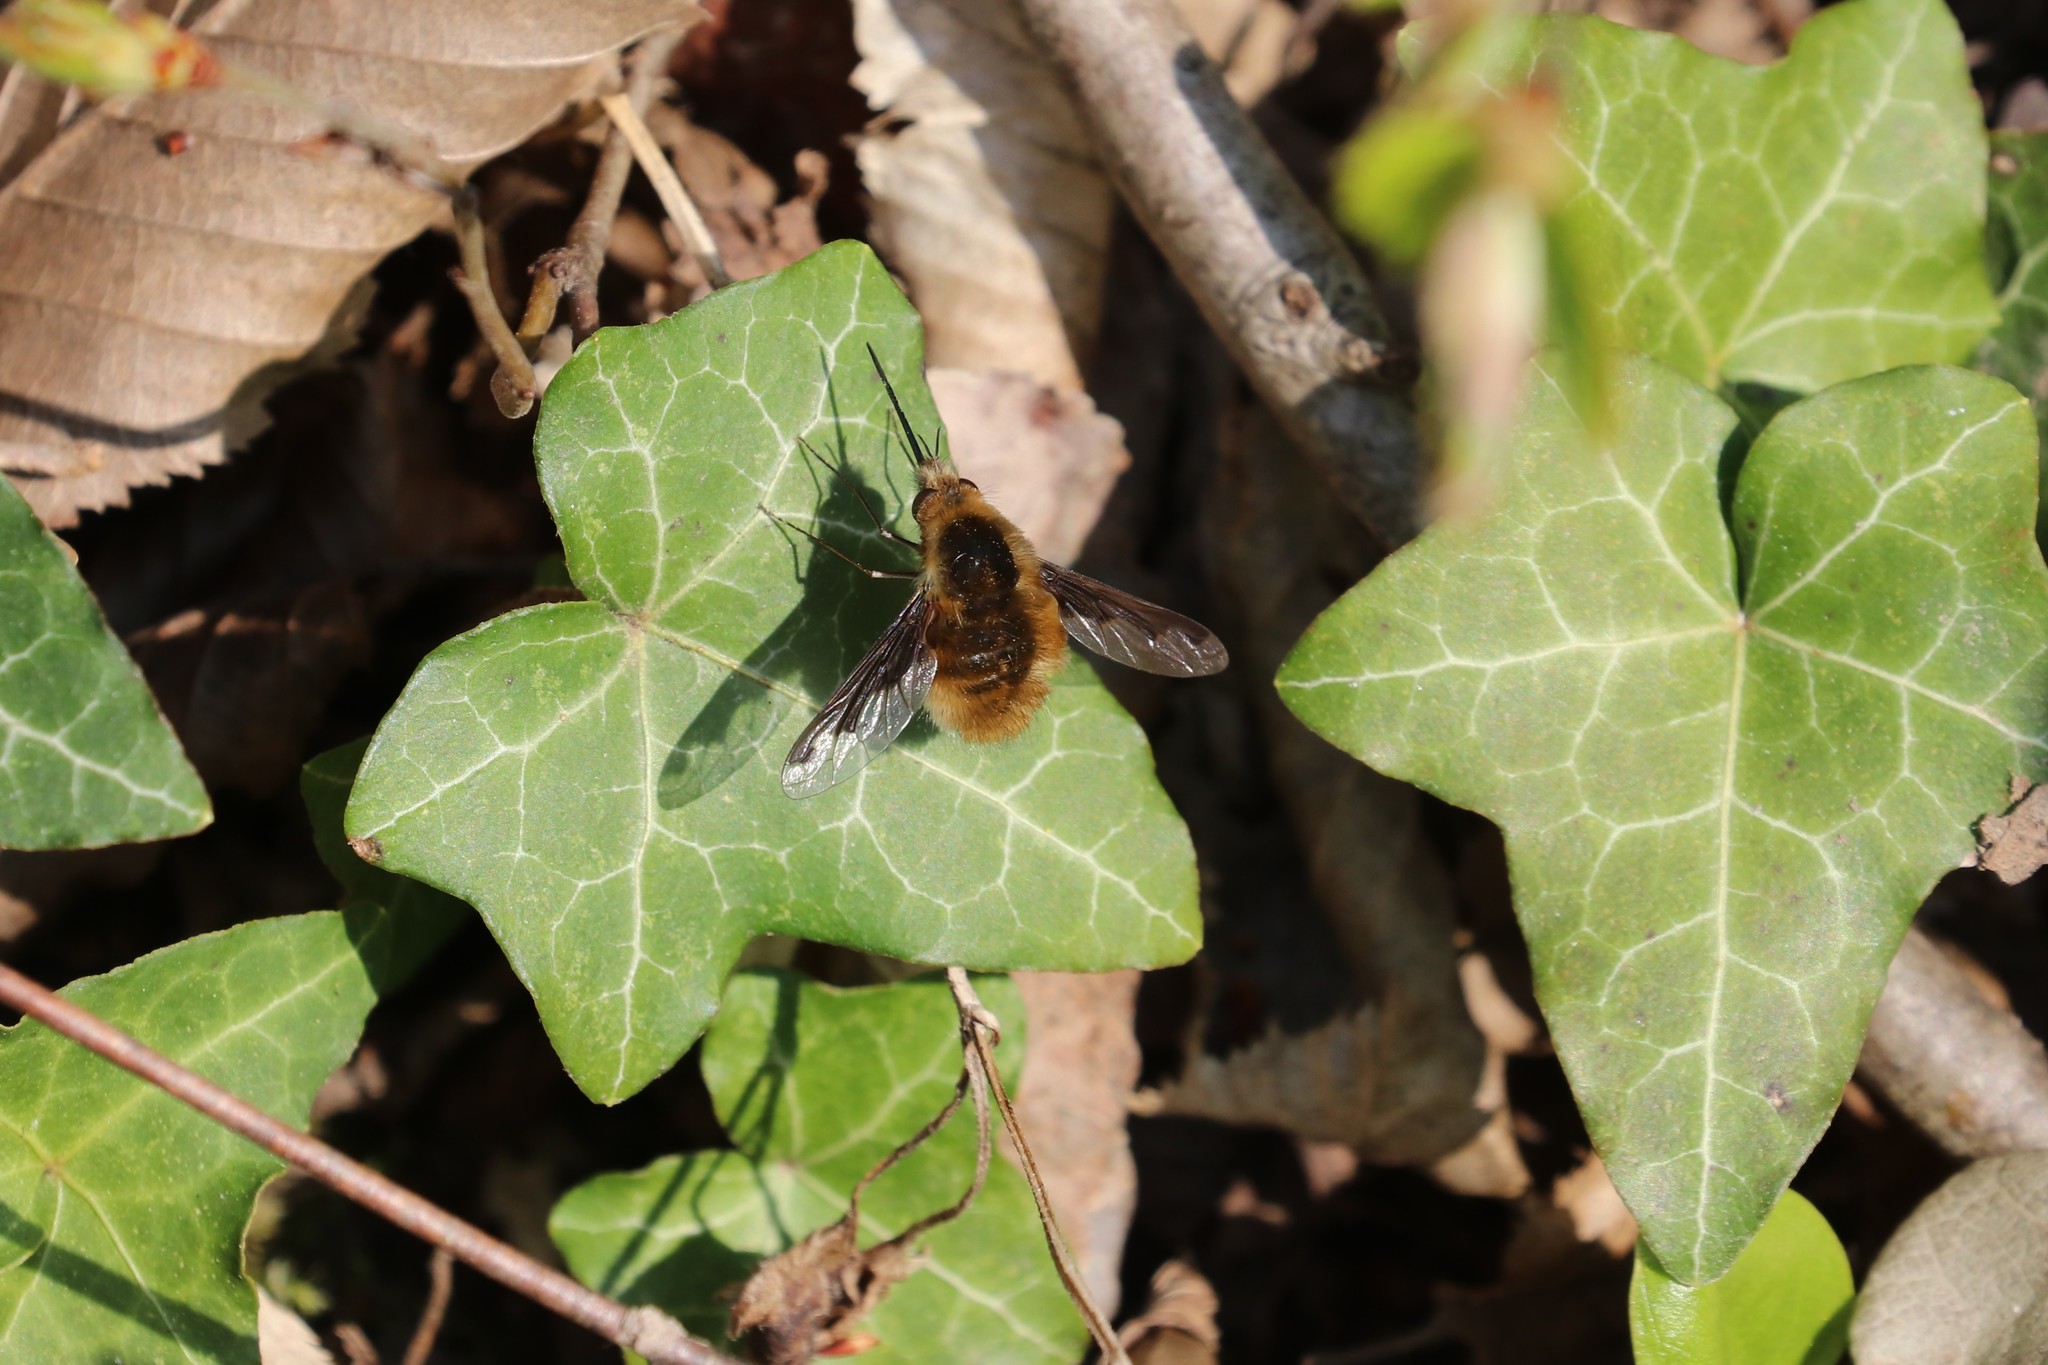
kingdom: Animalia
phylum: Arthropoda
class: Insecta
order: Diptera
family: Bombyliidae
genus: Bombylius
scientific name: Bombylius major
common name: Bee fly
